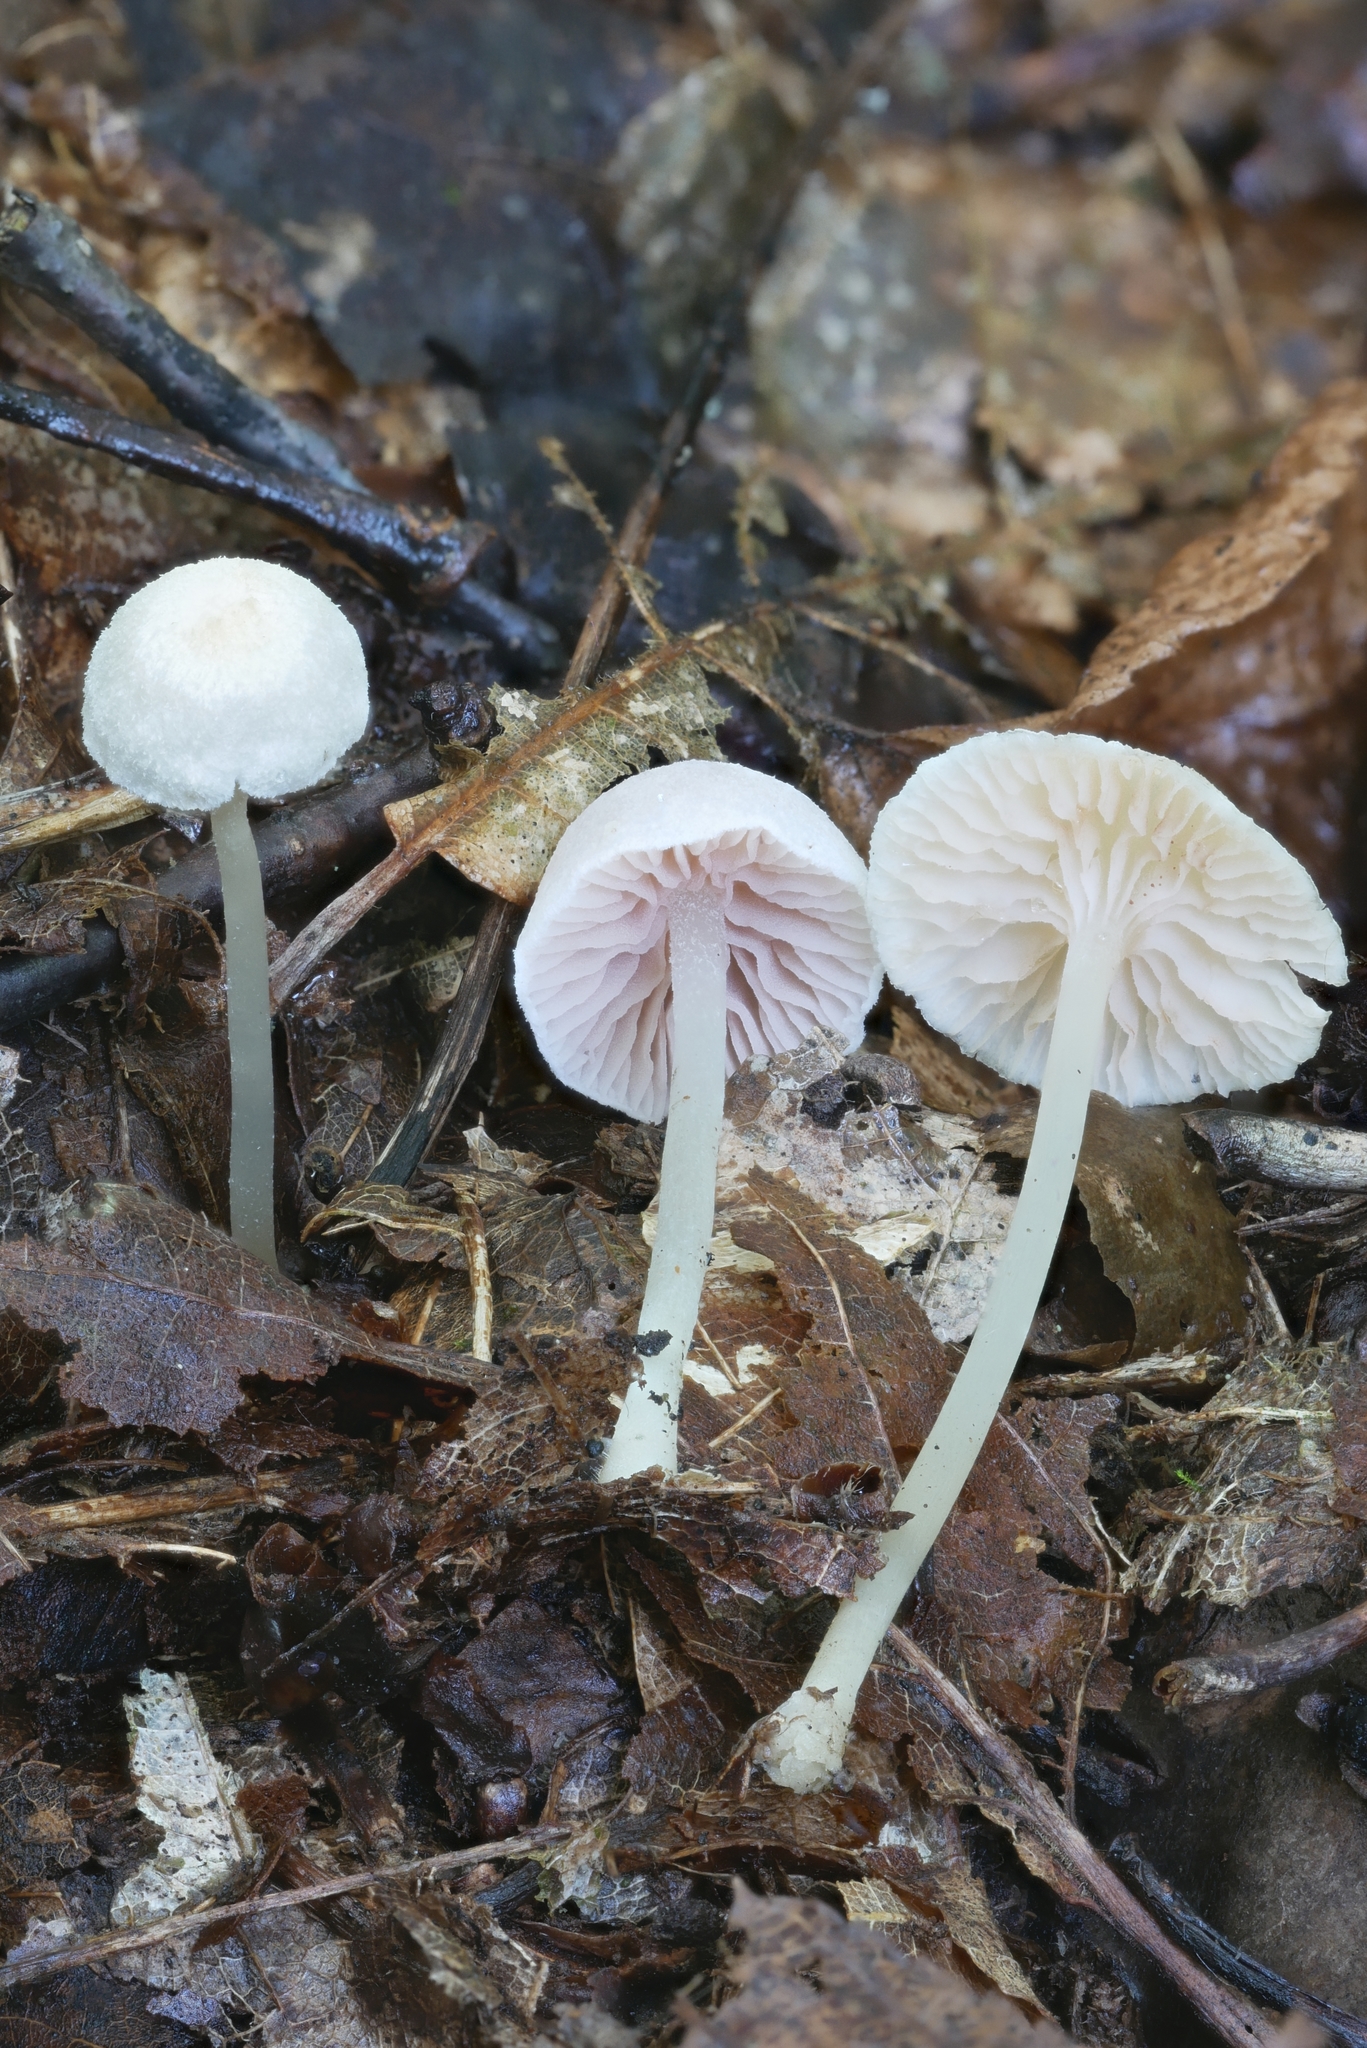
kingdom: Fungi
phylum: Basidiomycota
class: Agaricomycetes
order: Agaricales
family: Entolomataceae
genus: Entoloma
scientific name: Entoloma sericellum
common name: Cream pinkgill
